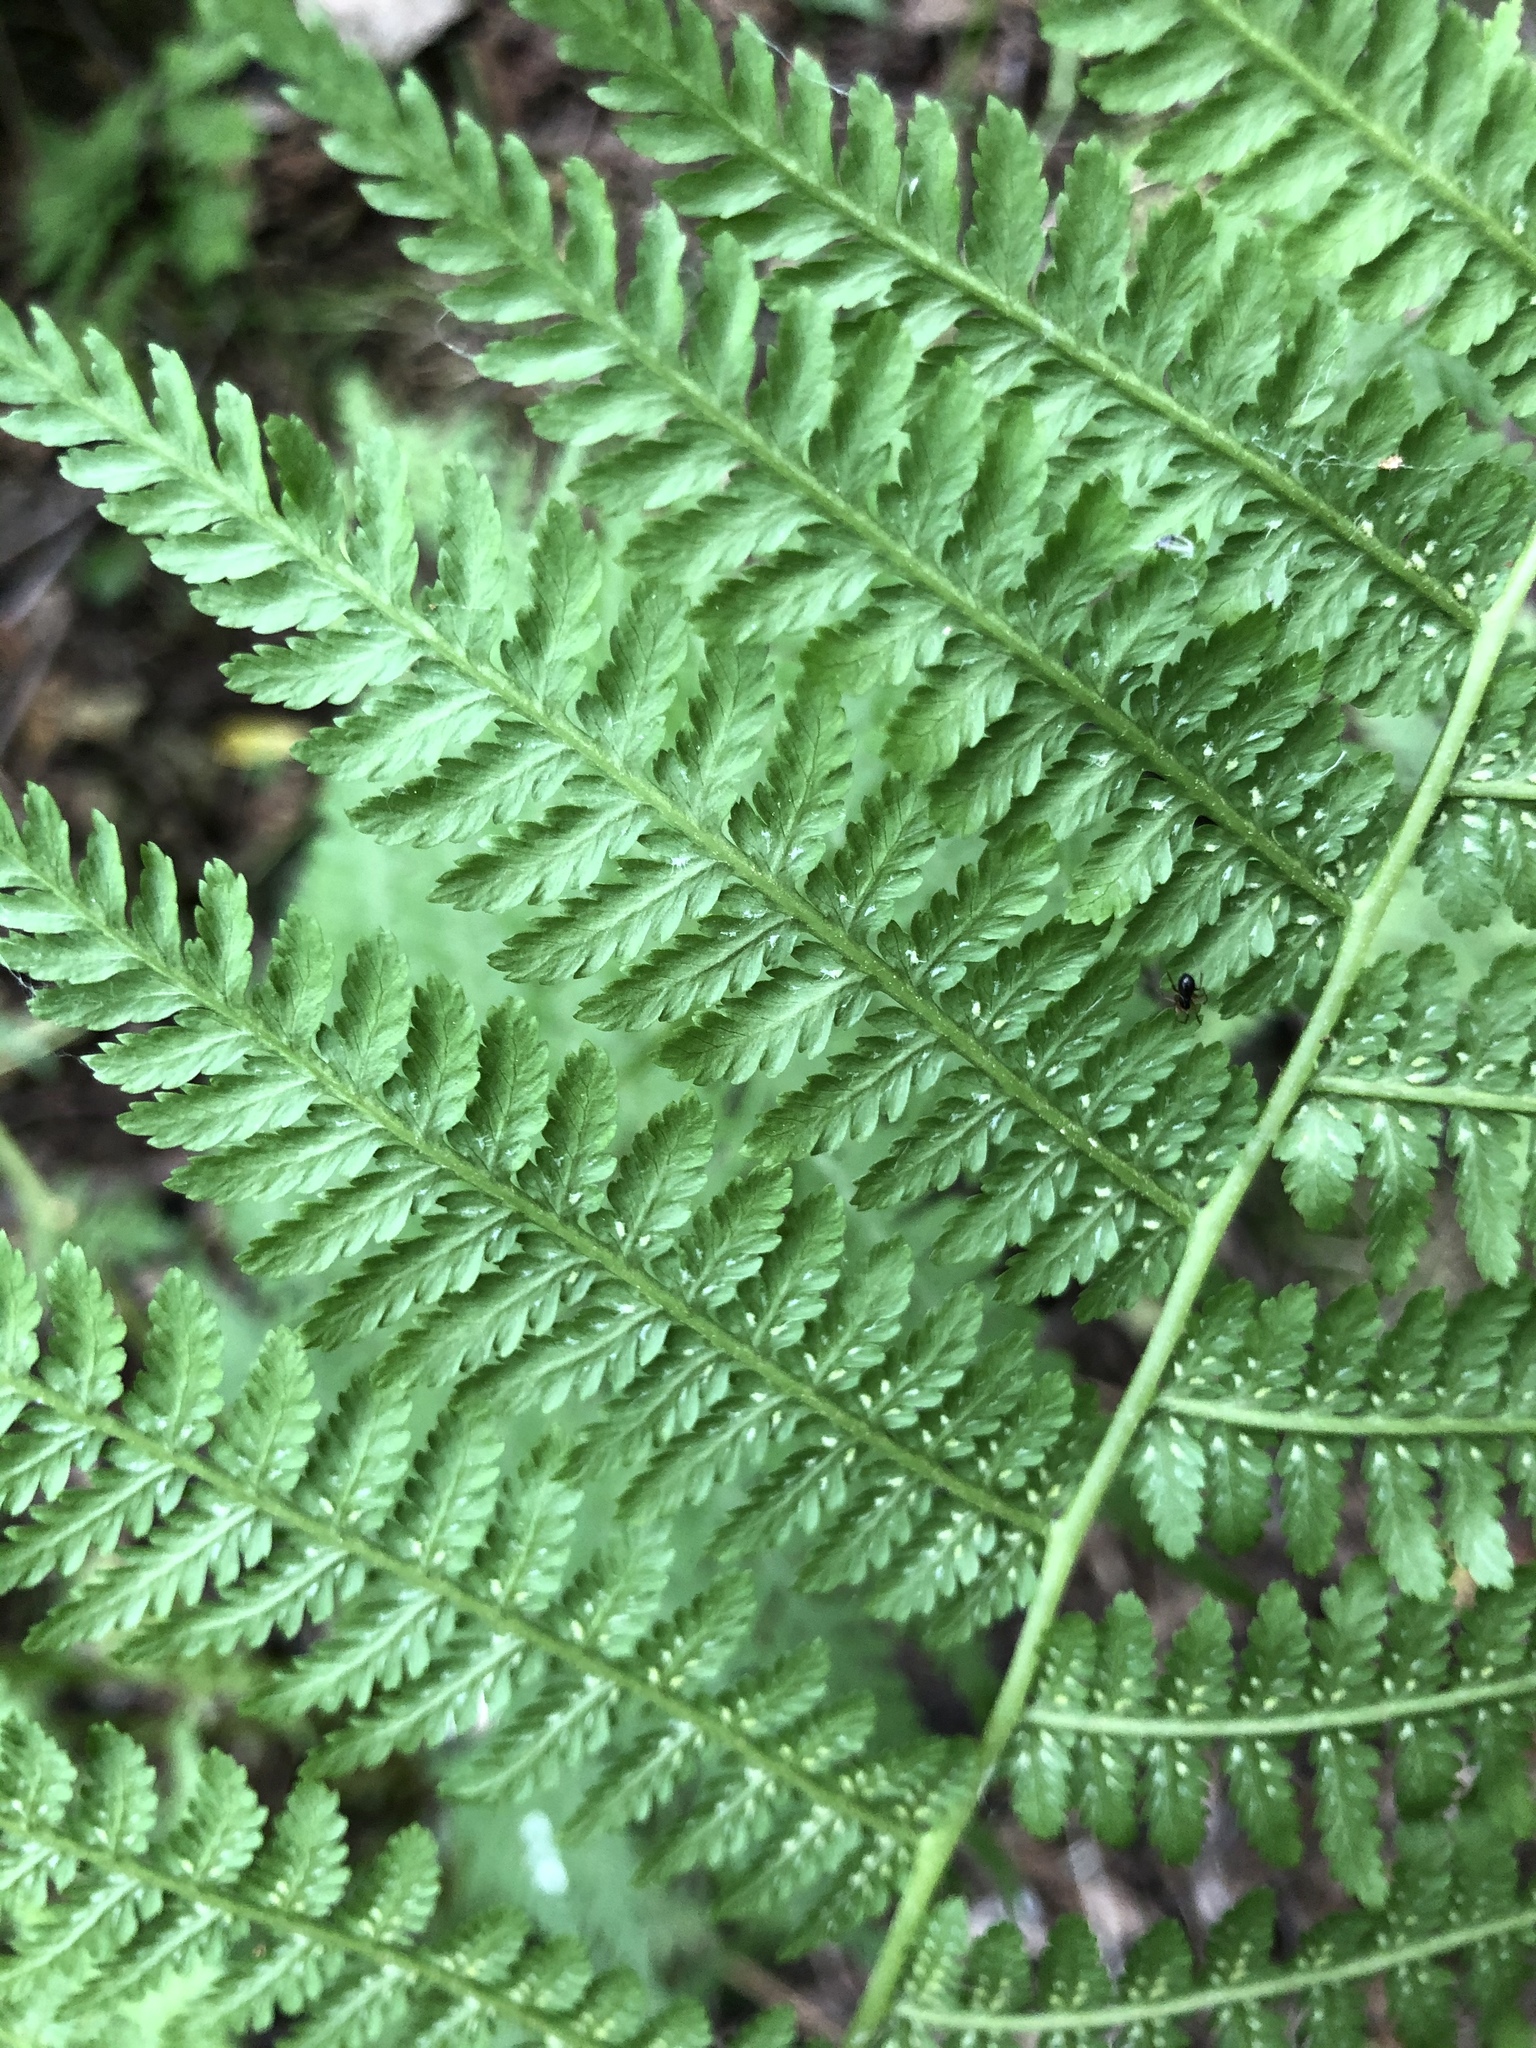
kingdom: Plantae
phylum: Tracheophyta
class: Polypodiopsida
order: Polypodiales
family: Athyriaceae
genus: Athyrium
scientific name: Athyrium filix-femina
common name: Lady fern
